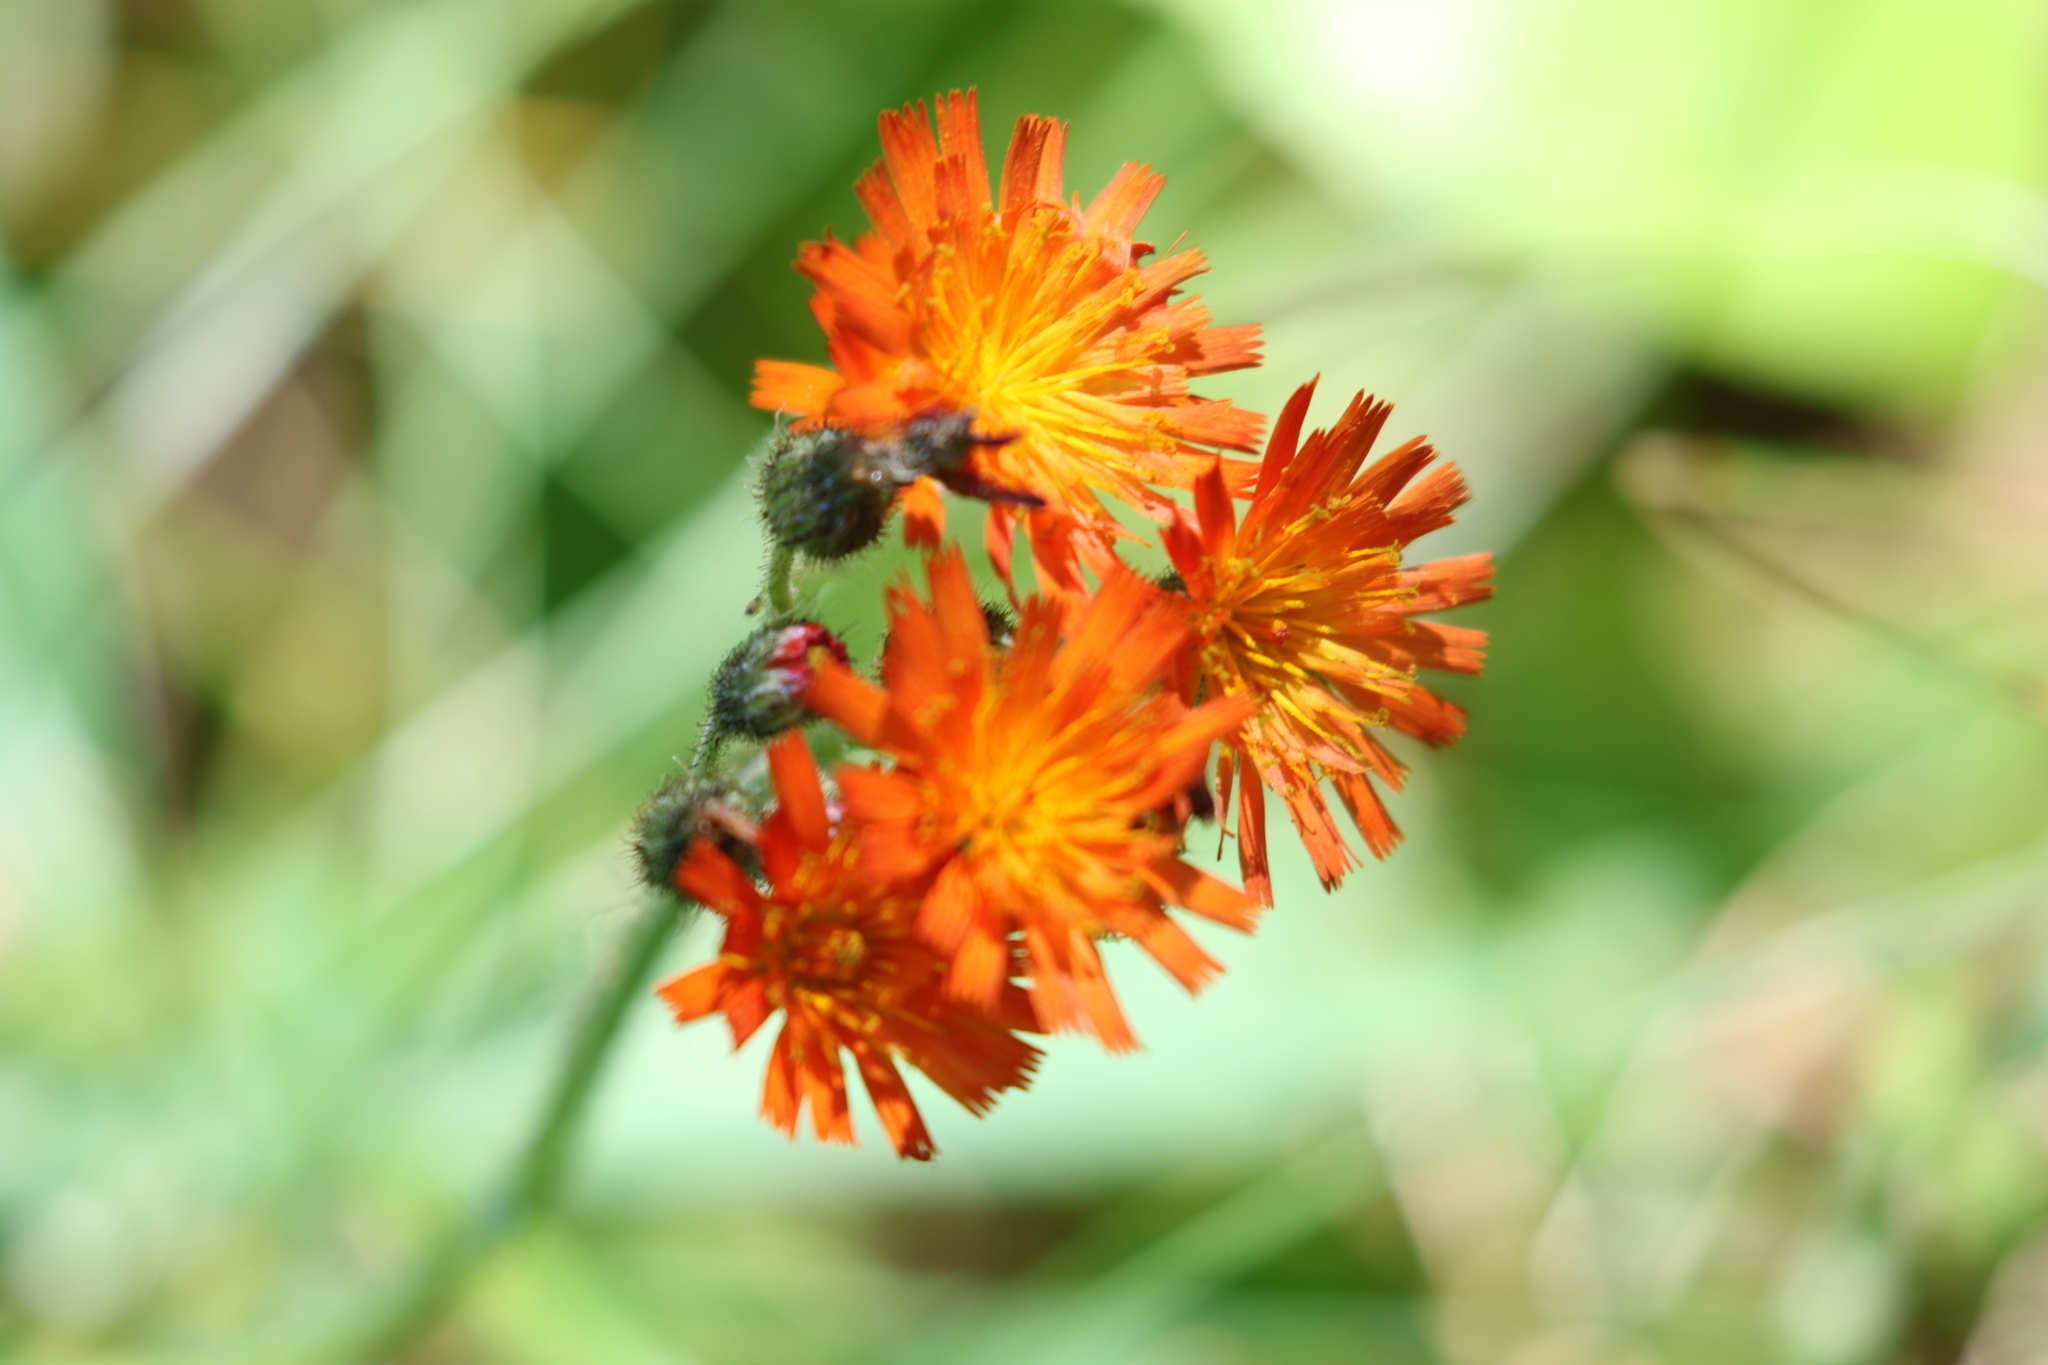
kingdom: Plantae
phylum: Tracheophyta
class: Magnoliopsida
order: Asterales
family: Asteraceae
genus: Pilosella
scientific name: Pilosella aurantiaca
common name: Fox-and-cubs
